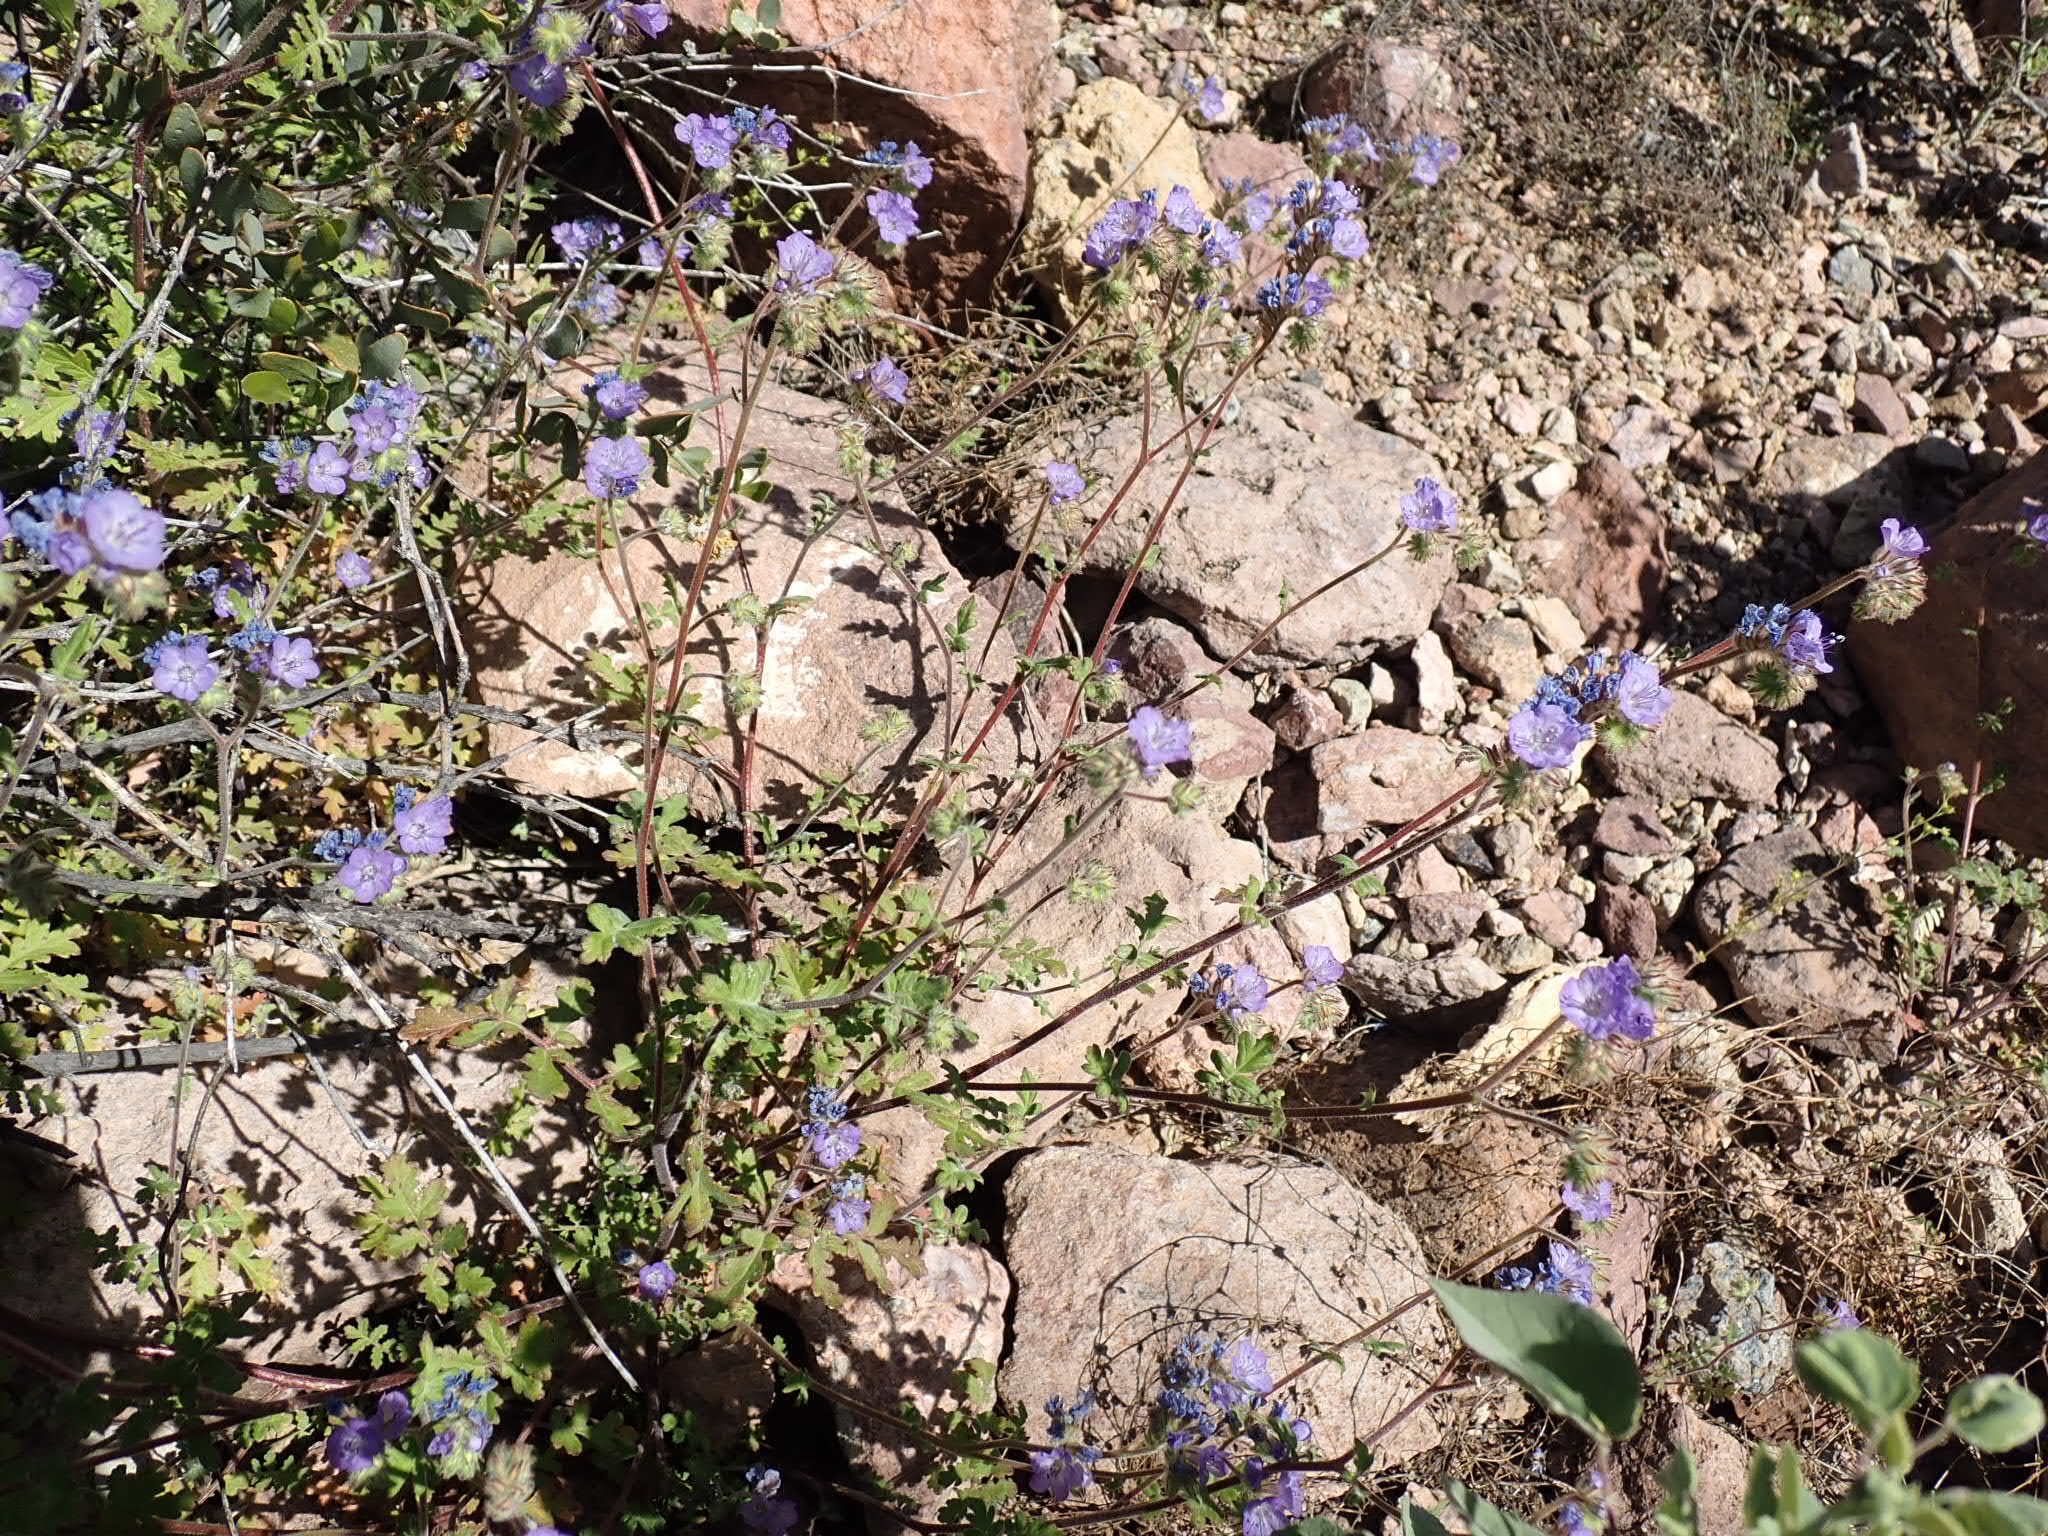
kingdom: Plantae
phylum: Tracheophyta
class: Magnoliopsida
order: Boraginales
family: Hydrophyllaceae
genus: Phacelia
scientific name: Phacelia distans
